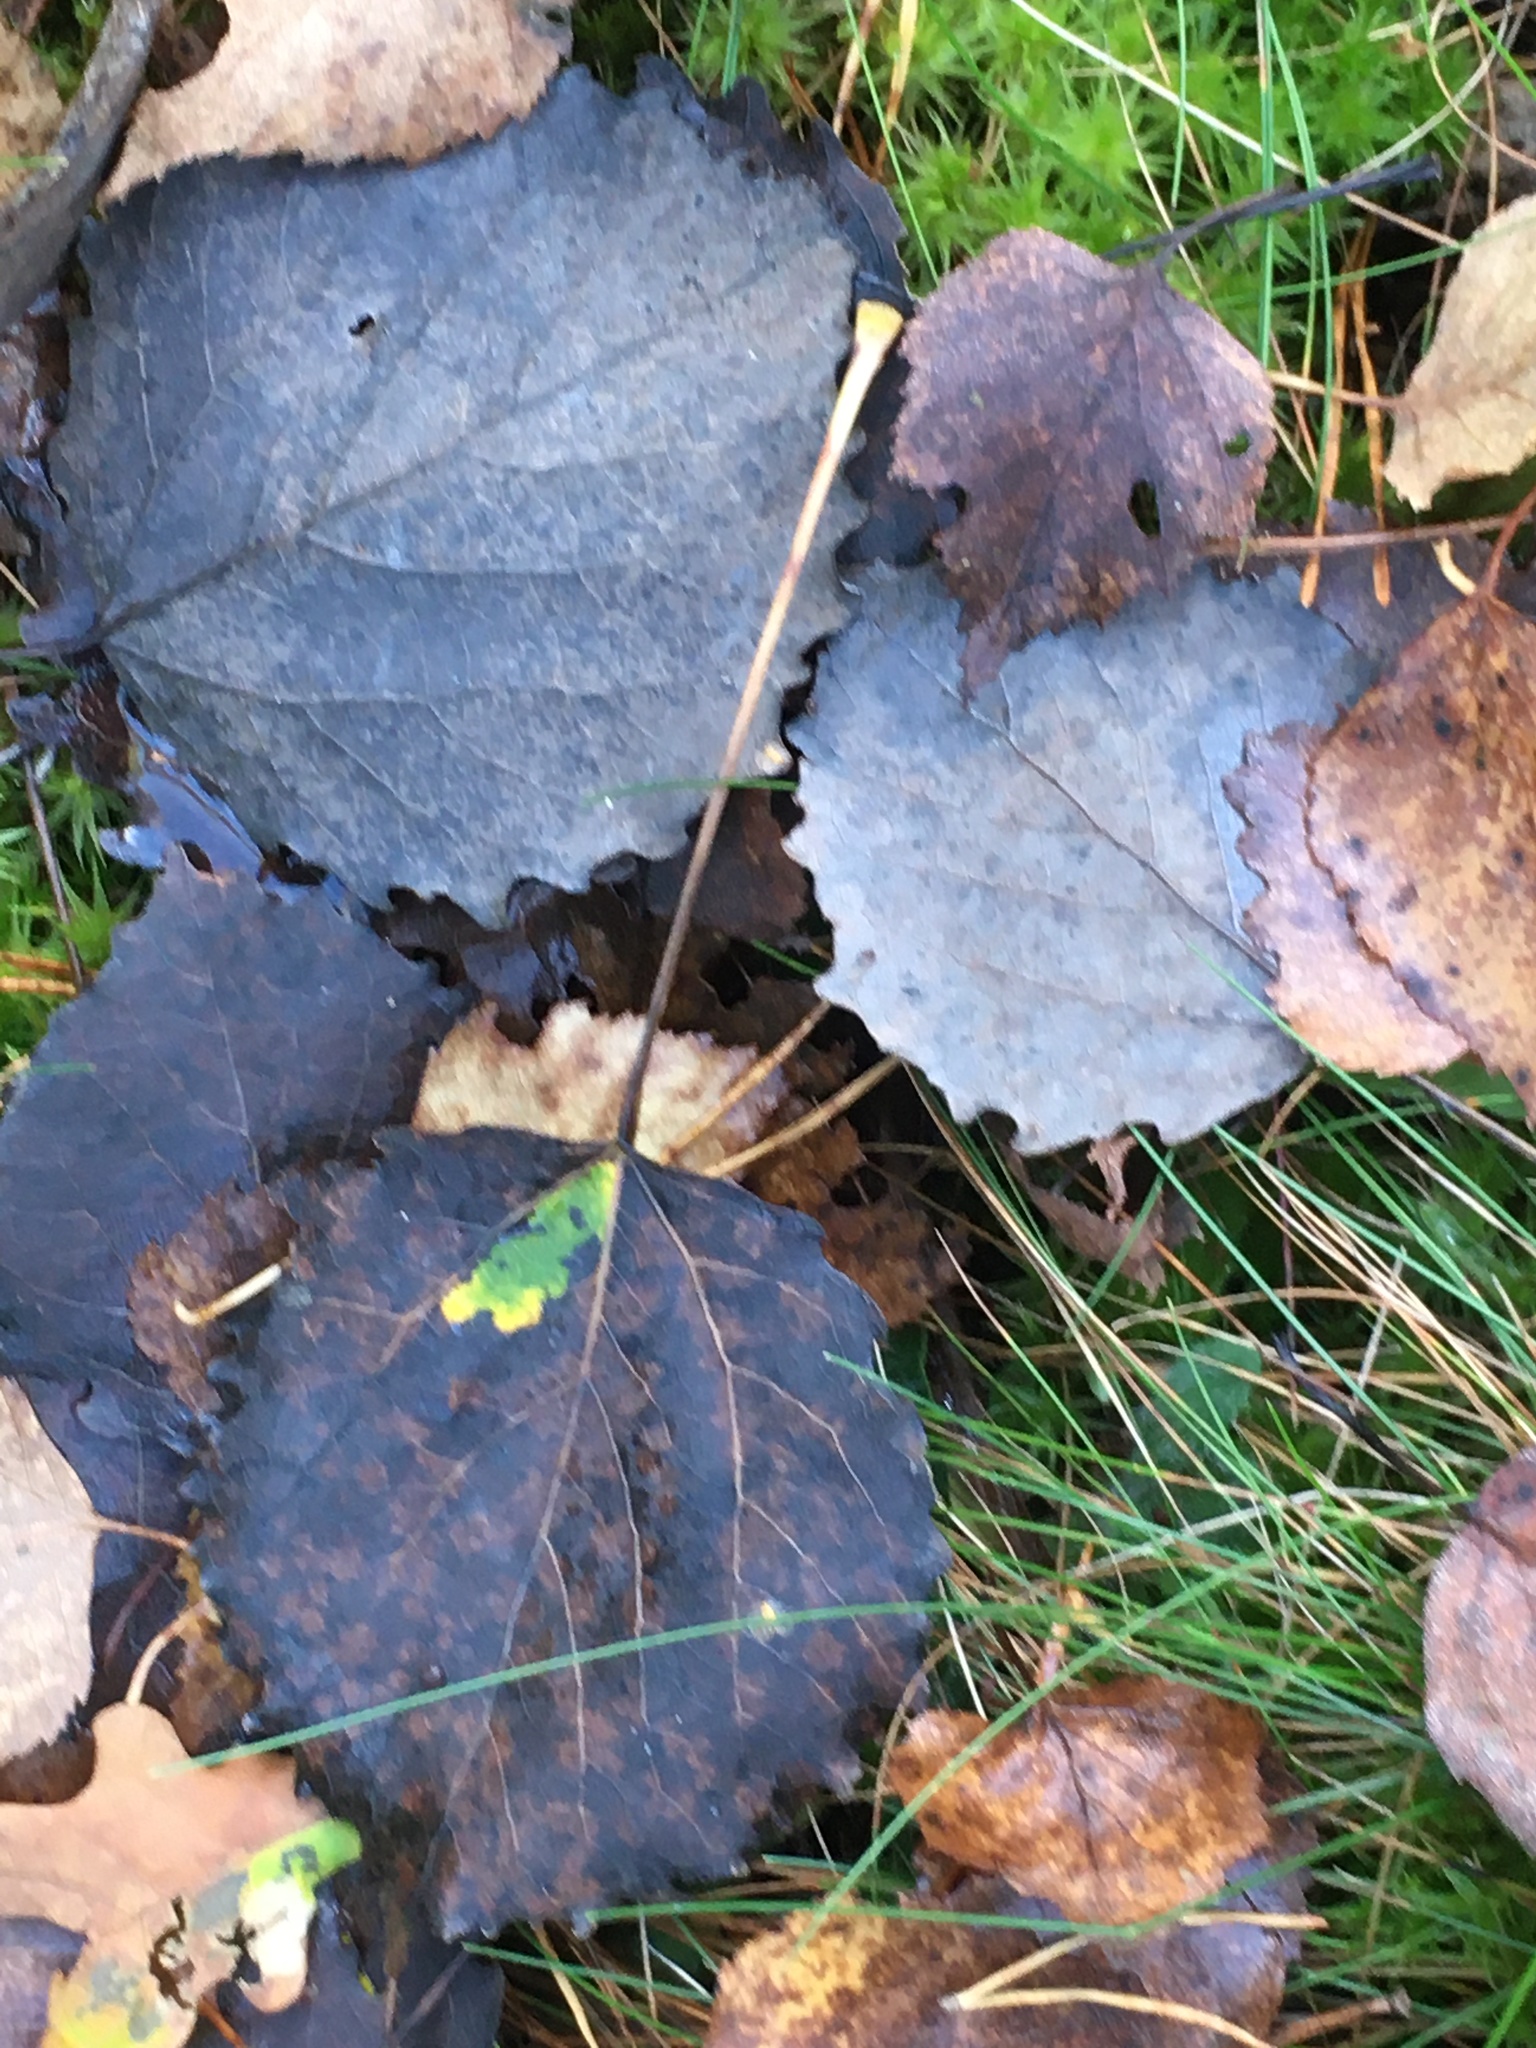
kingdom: Plantae
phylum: Tracheophyta
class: Magnoliopsida
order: Malpighiales
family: Salicaceae
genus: Populus
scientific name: Populus tremula
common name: European aspen
